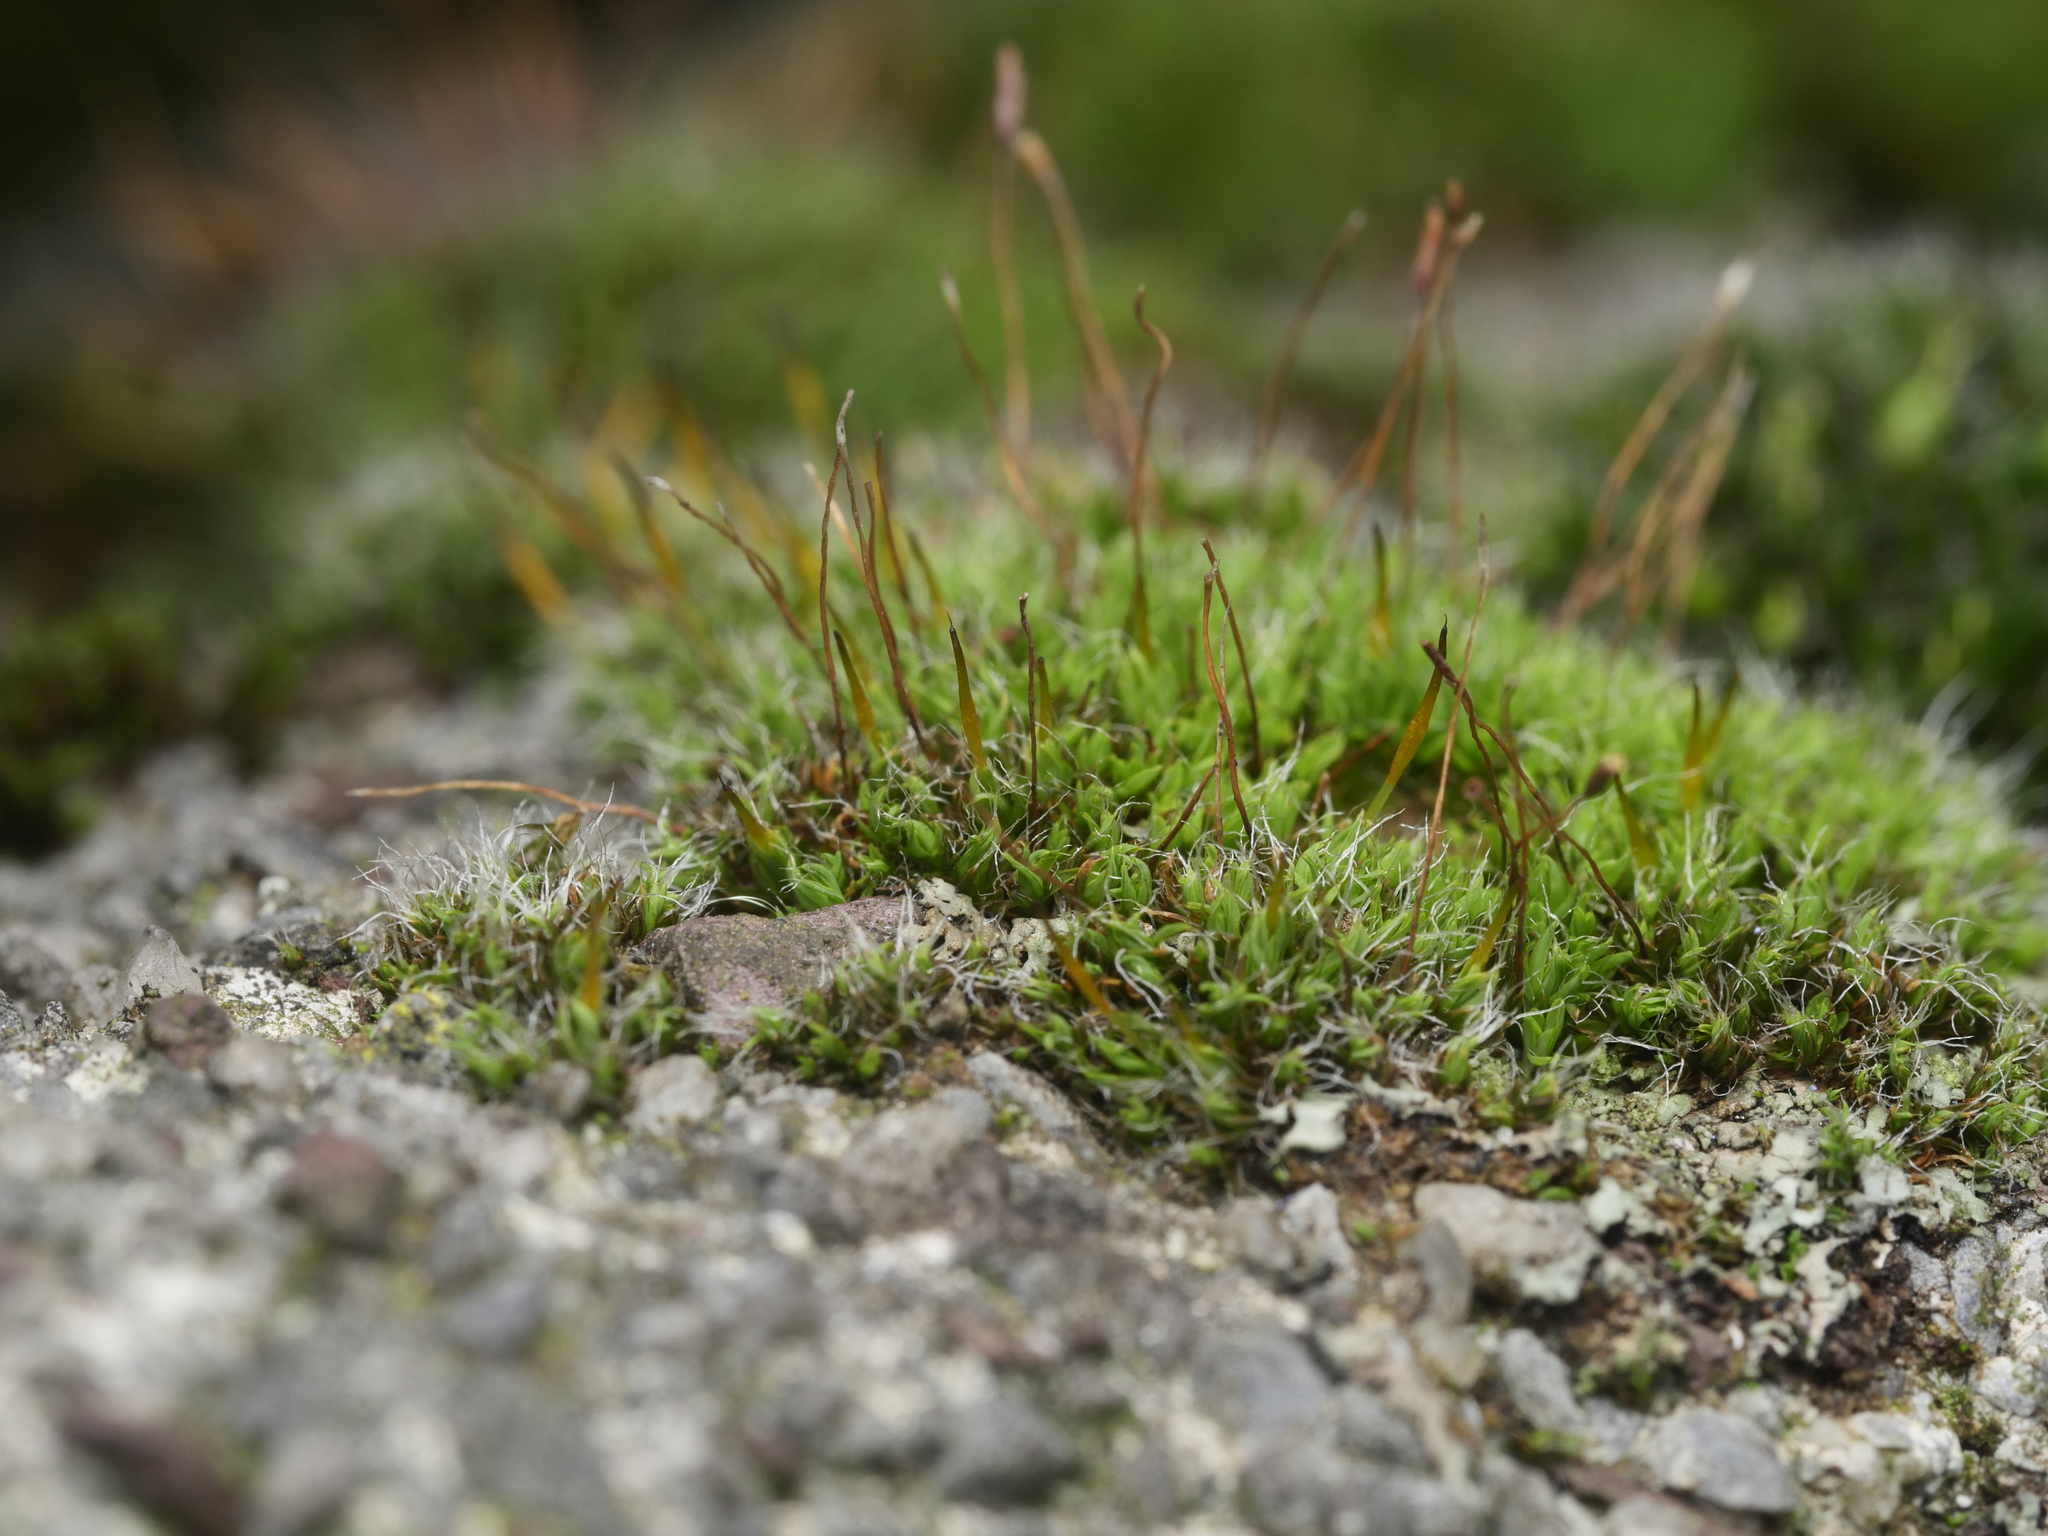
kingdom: Plantae
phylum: Bryophyta
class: Bryopsida
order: Pottiales
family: Pottiaceae
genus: Tortula
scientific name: Tortula muralis
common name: Wall screw-moss
